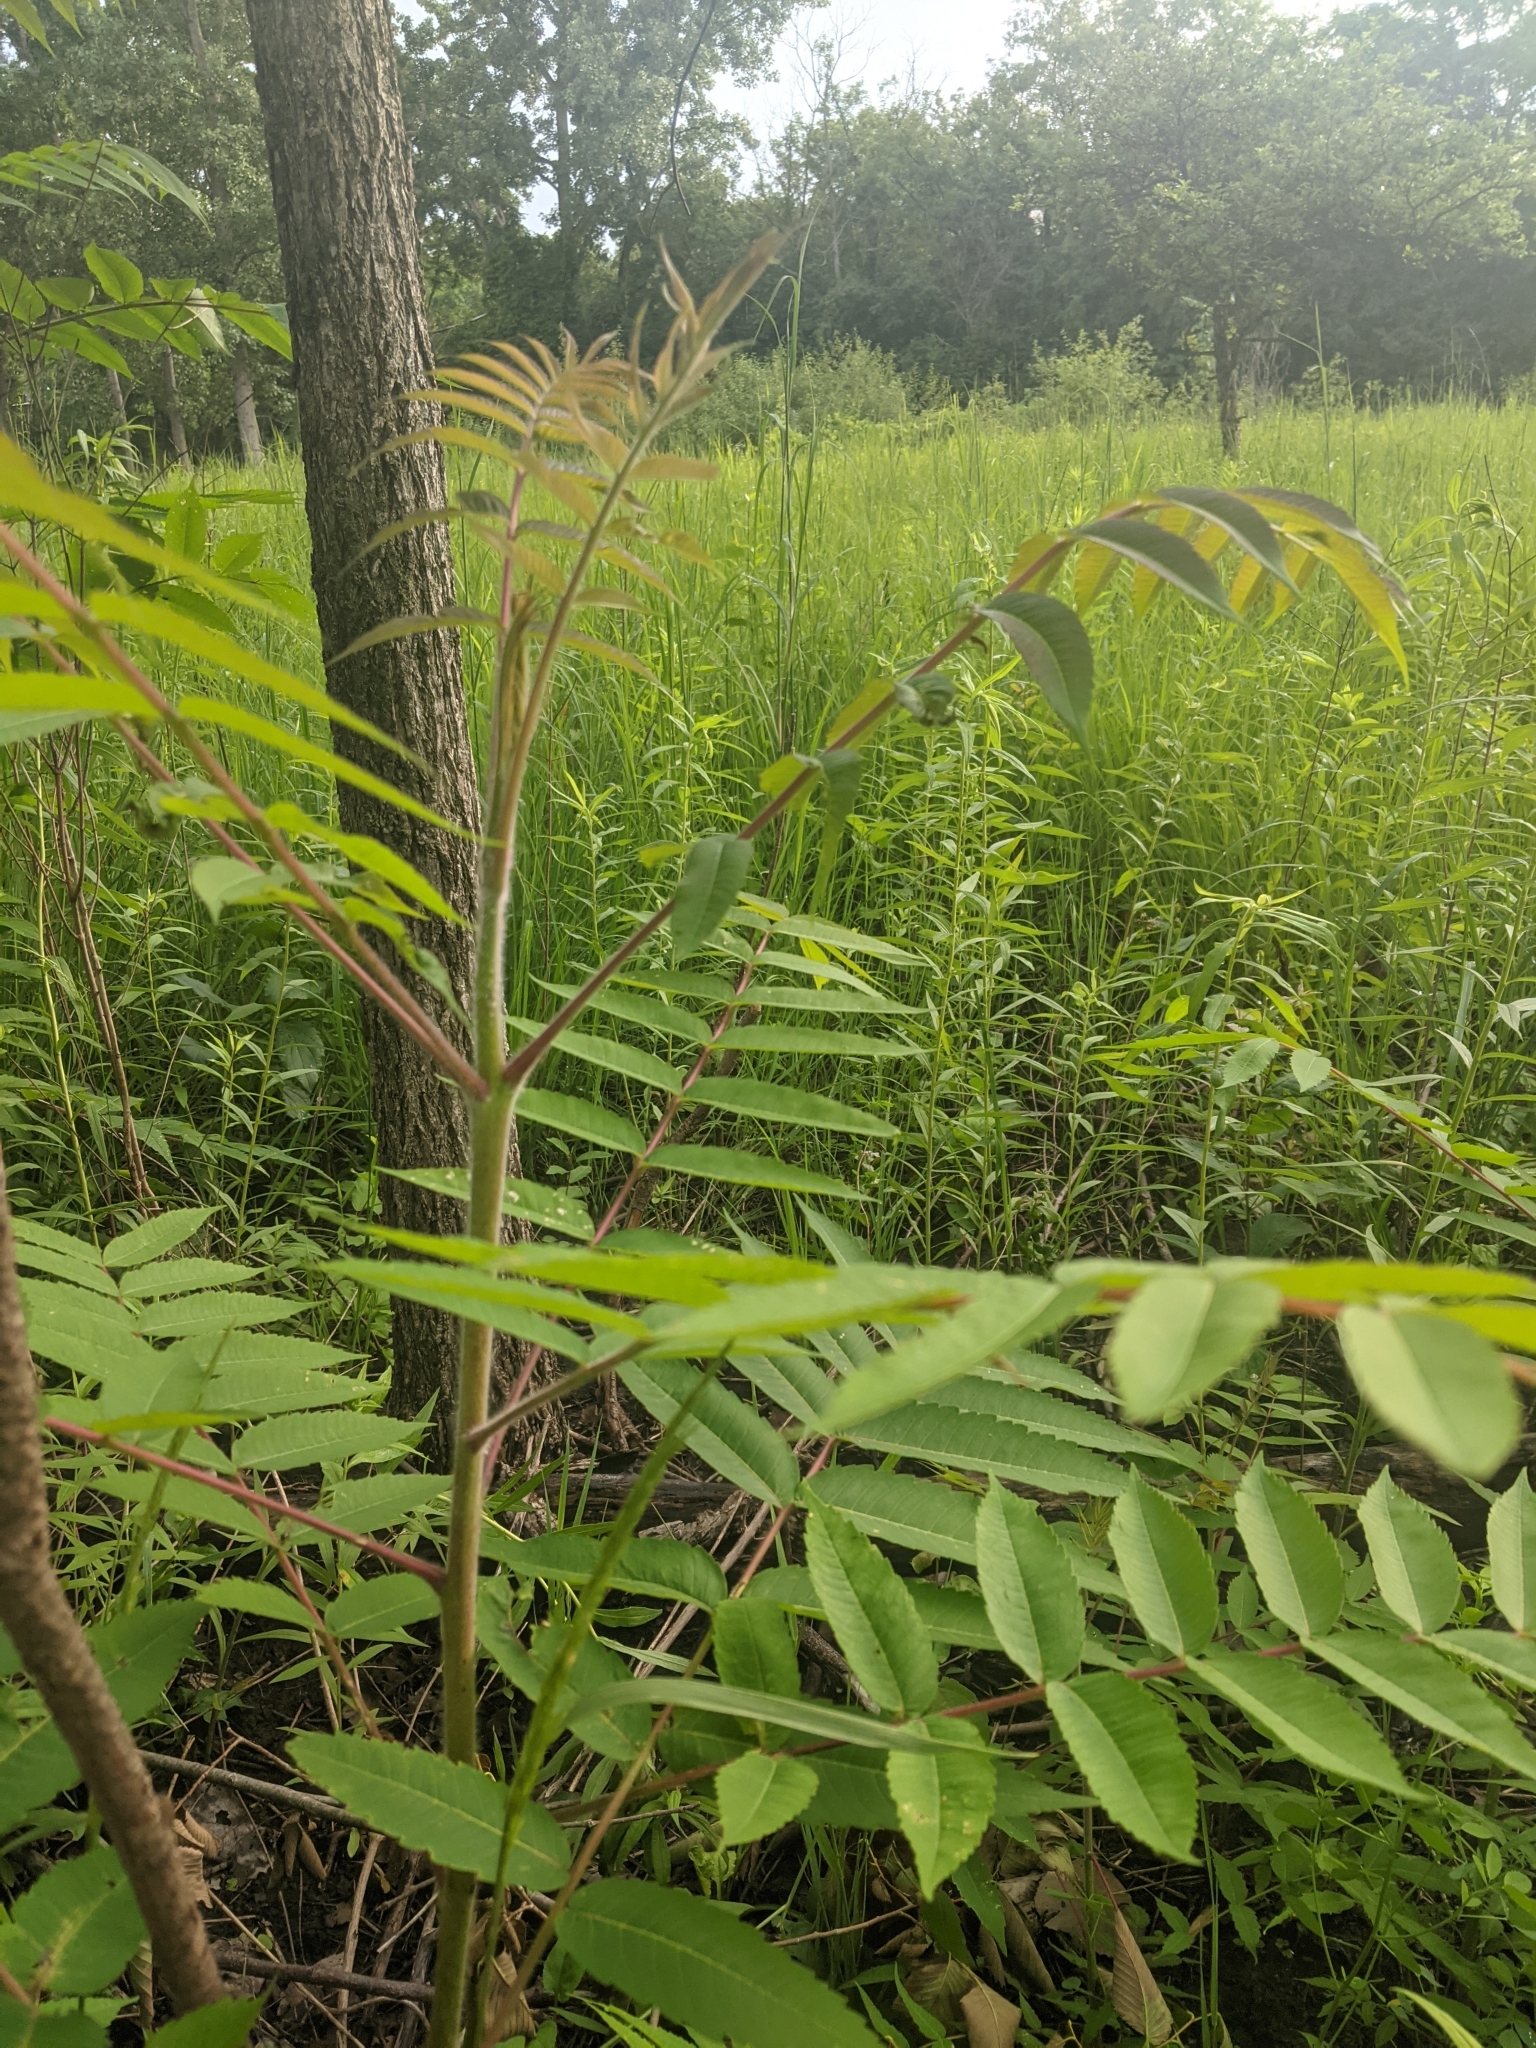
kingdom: Plantae
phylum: Tracheophyta
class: Magnoliopsida
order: Sapindales
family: Anacardiaceae
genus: Rhus
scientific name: Rhus typhina
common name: Staghorn sumac
